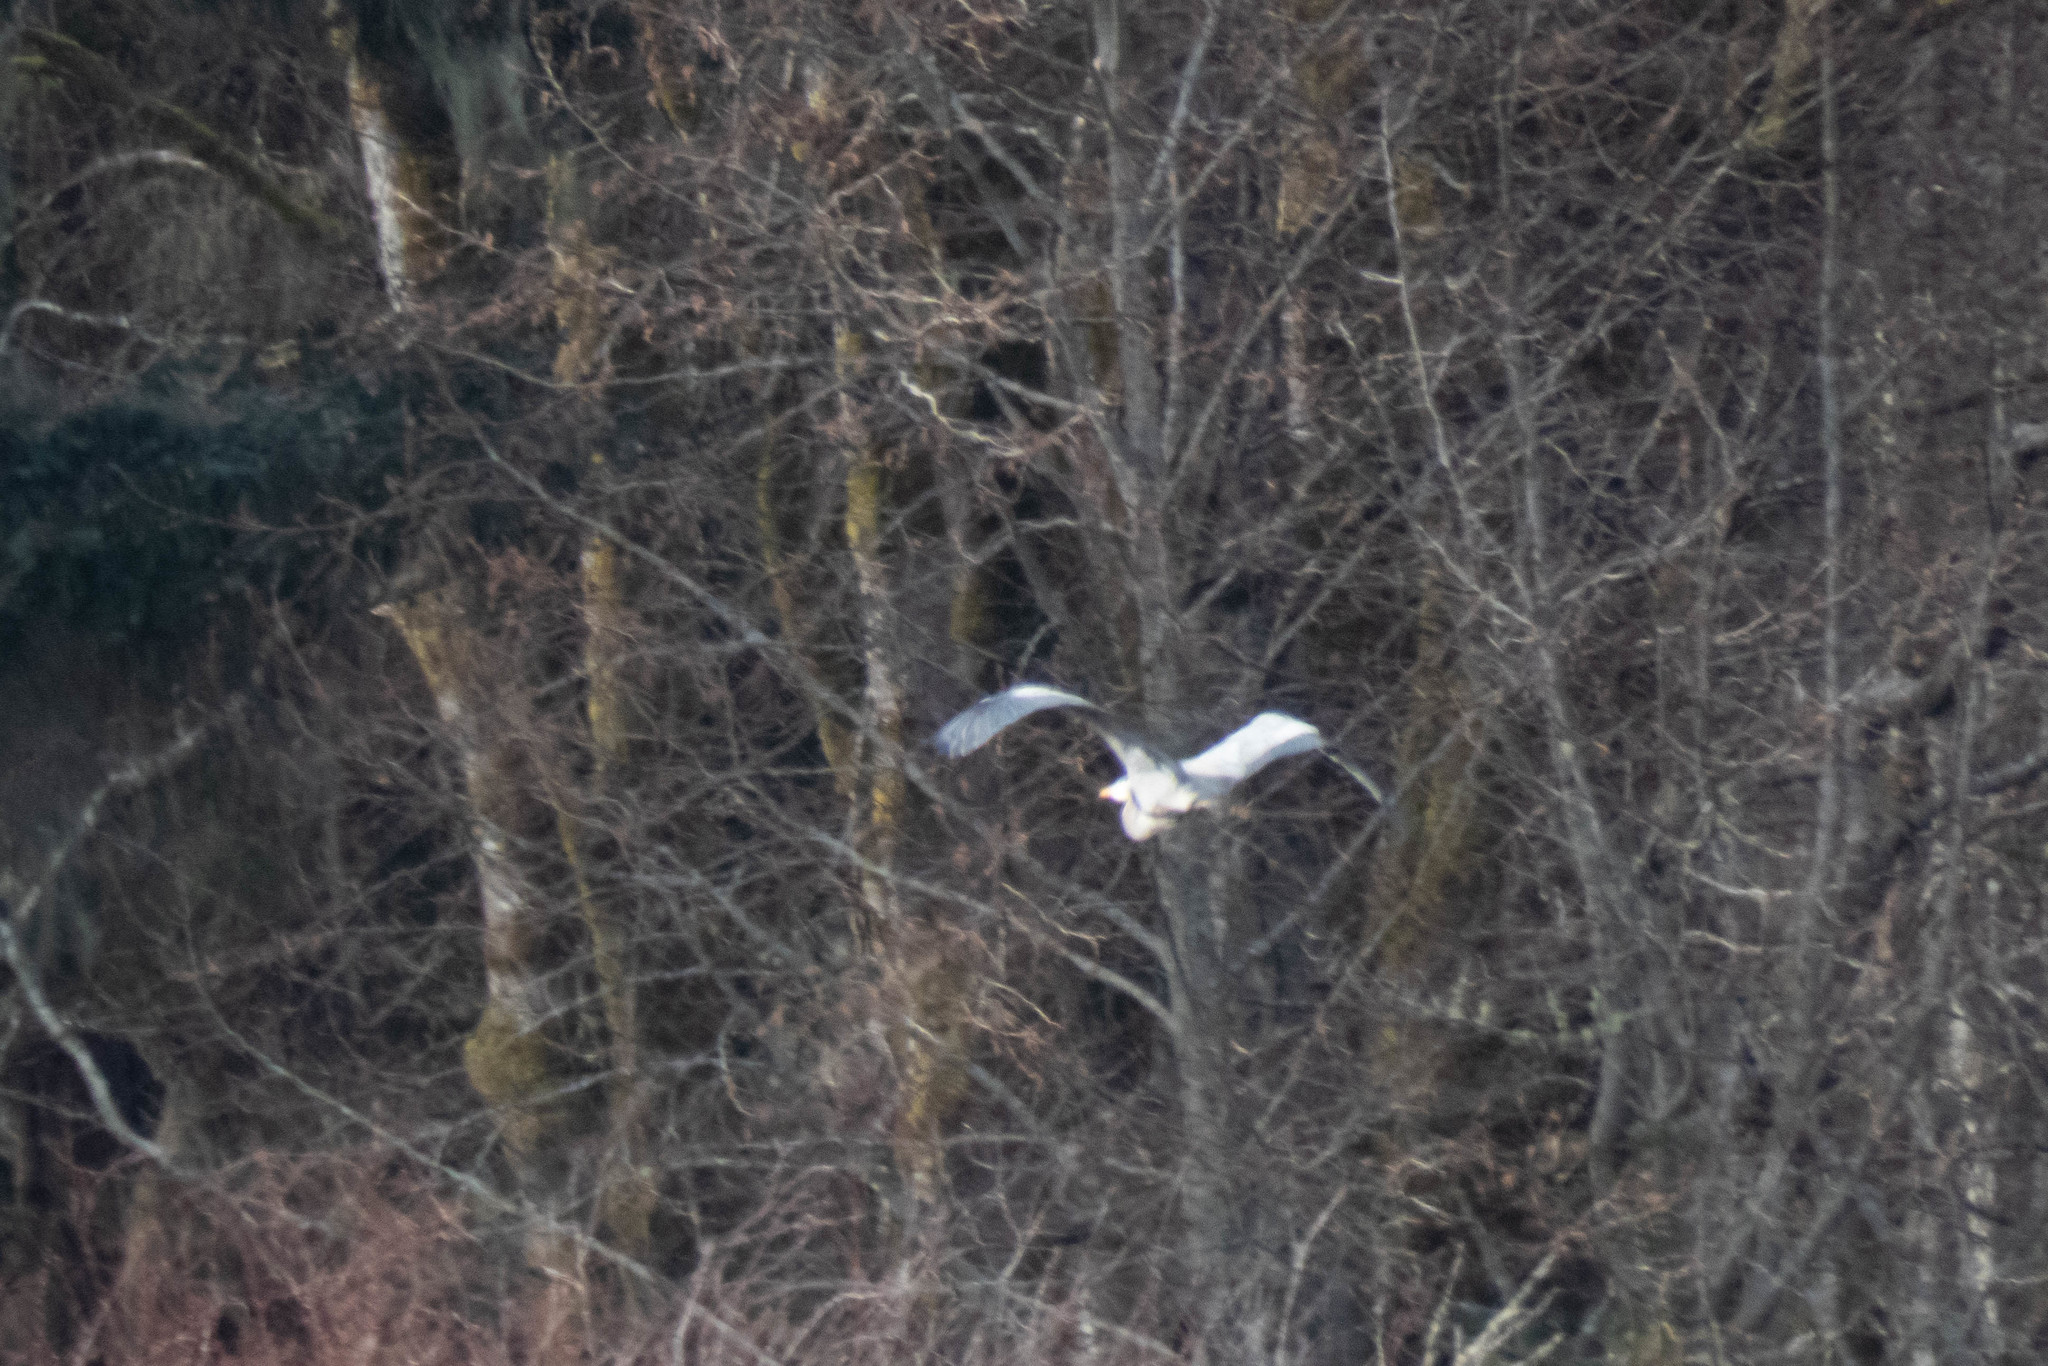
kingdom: Animalia
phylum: Chordata
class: Aves
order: Pelecaniformes
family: Ardeidae
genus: Ardea
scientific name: Ardea herodias
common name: Great blue heron
